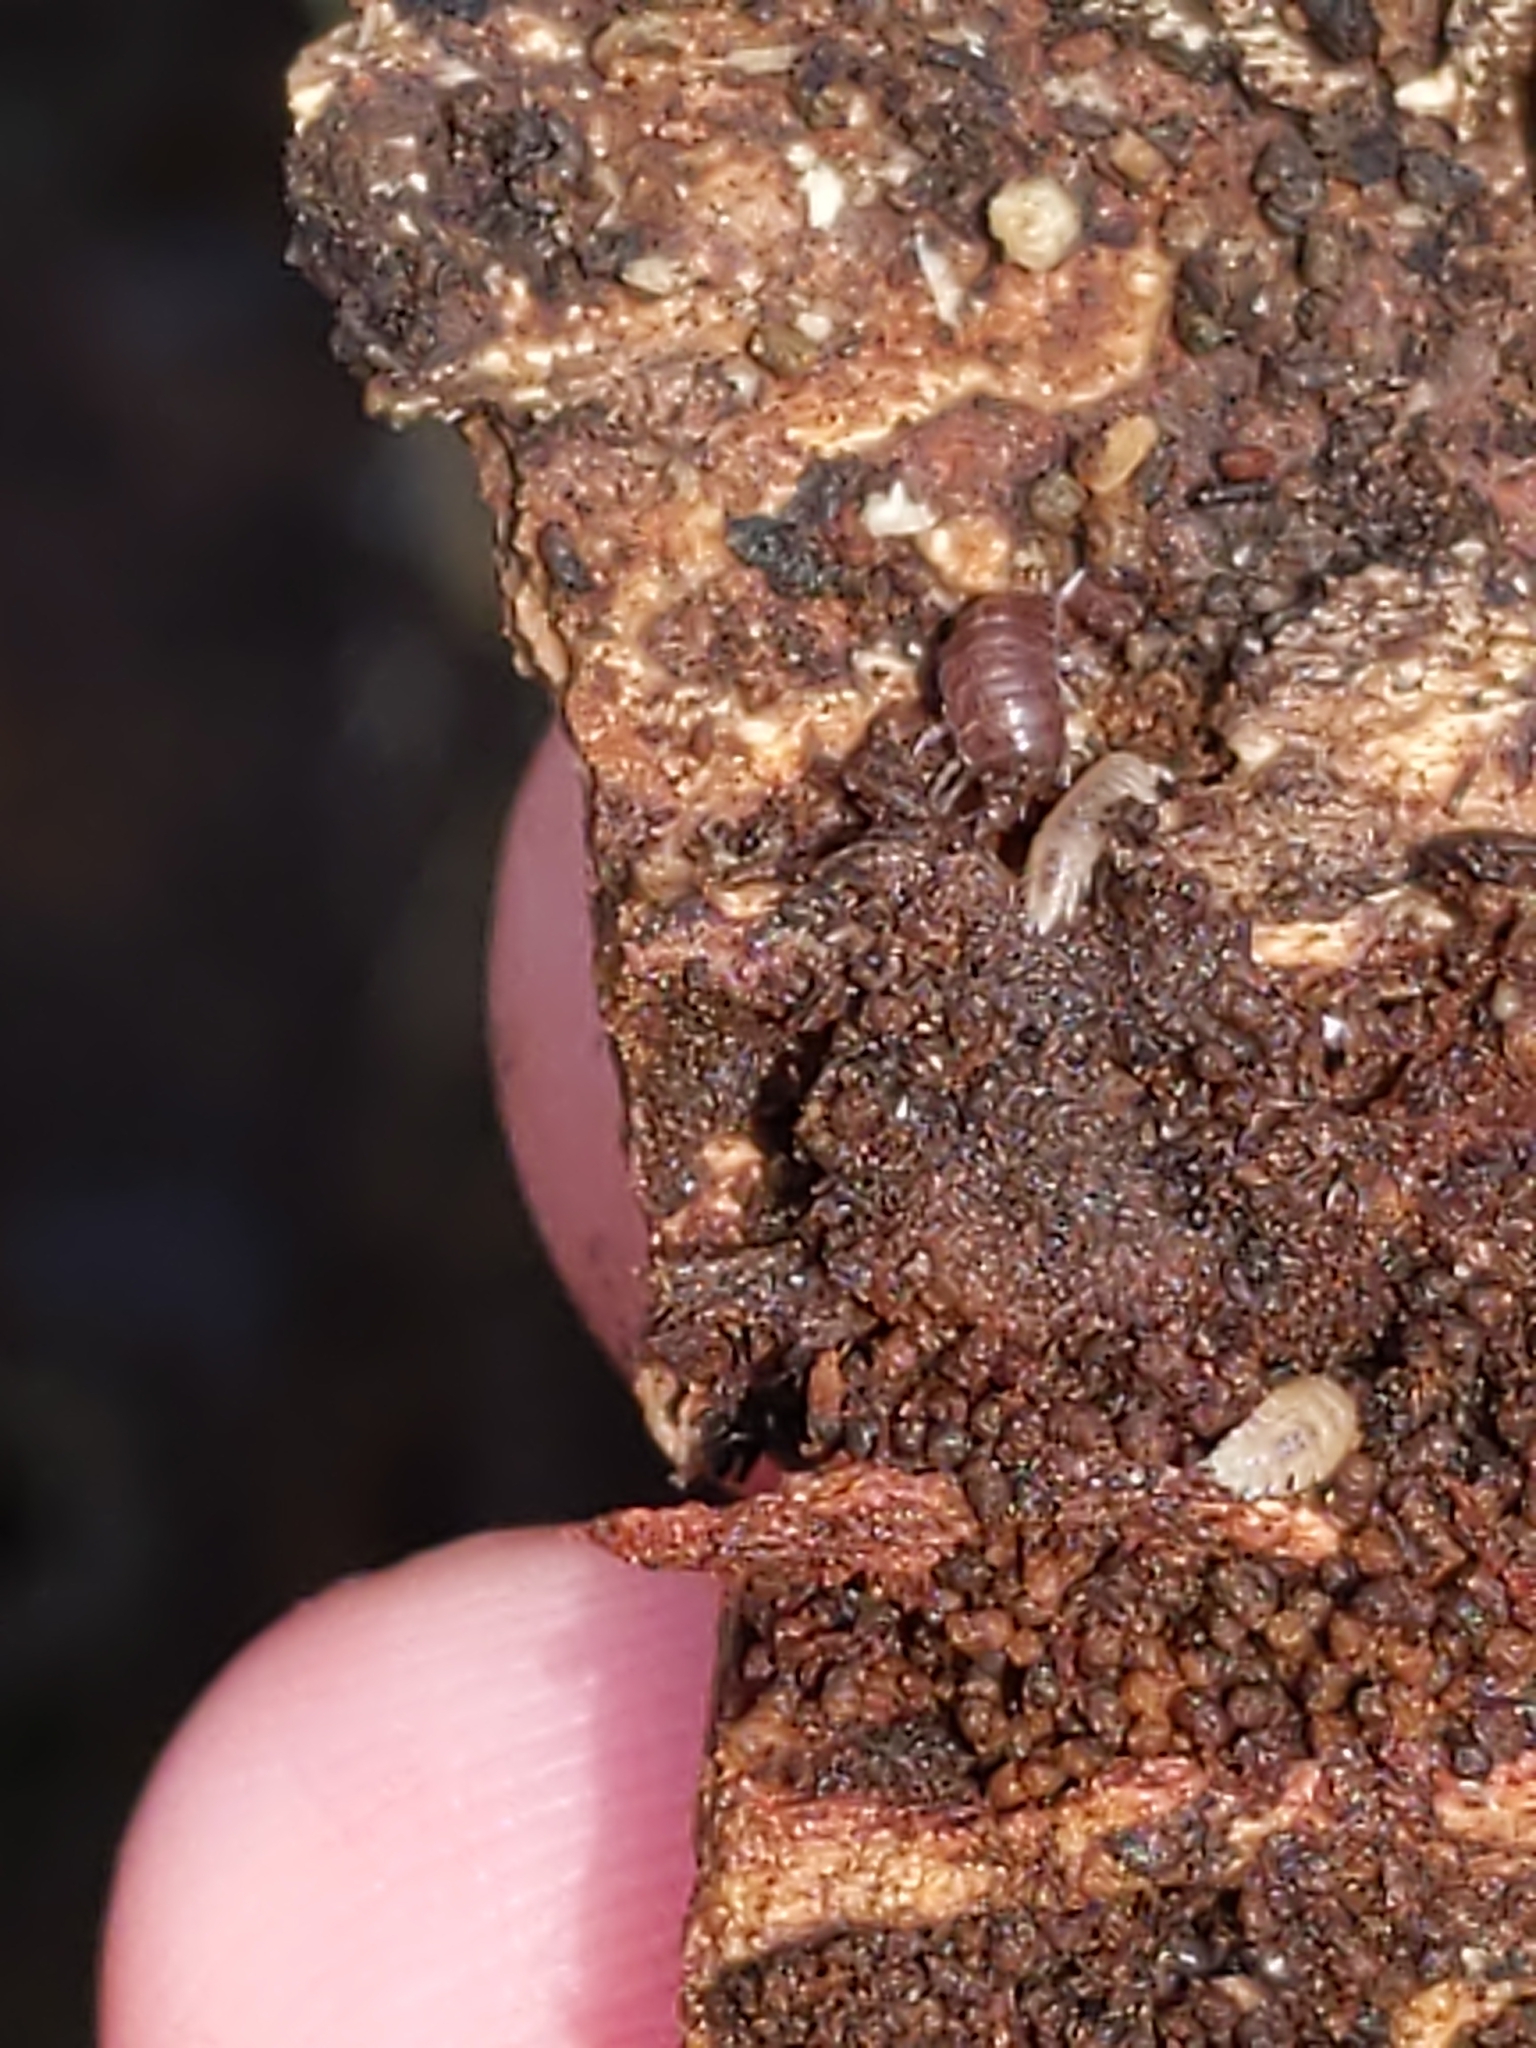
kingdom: Animalia
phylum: Arthropoda
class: Malacostraca
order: Isopoda
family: Trichoniscidae
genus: Haplophthalmus
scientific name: Haplophthalmus danicus
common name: Pillbug
